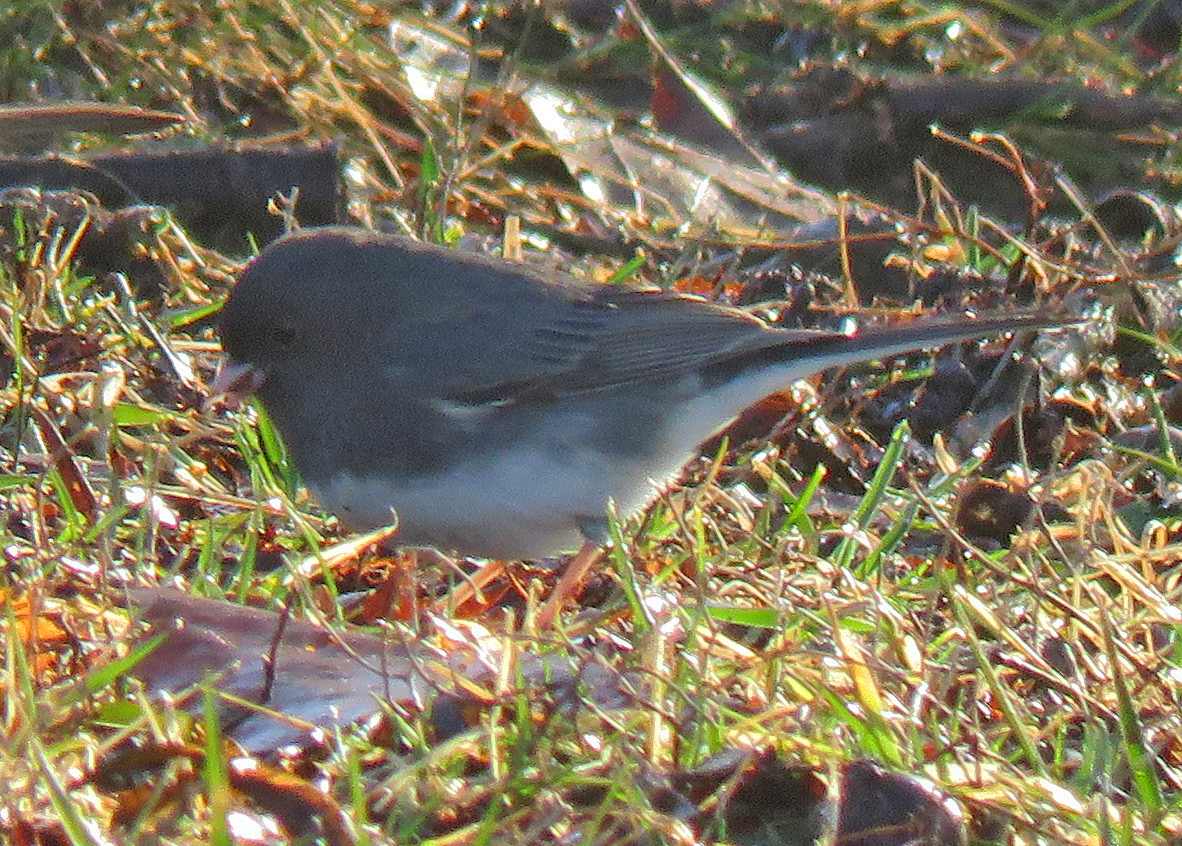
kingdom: Animalia
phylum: Chordata
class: Aves
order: Passeriformes
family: Passerellidae
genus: Junco
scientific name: Junco hyemalis
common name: Dark-eyed junco
